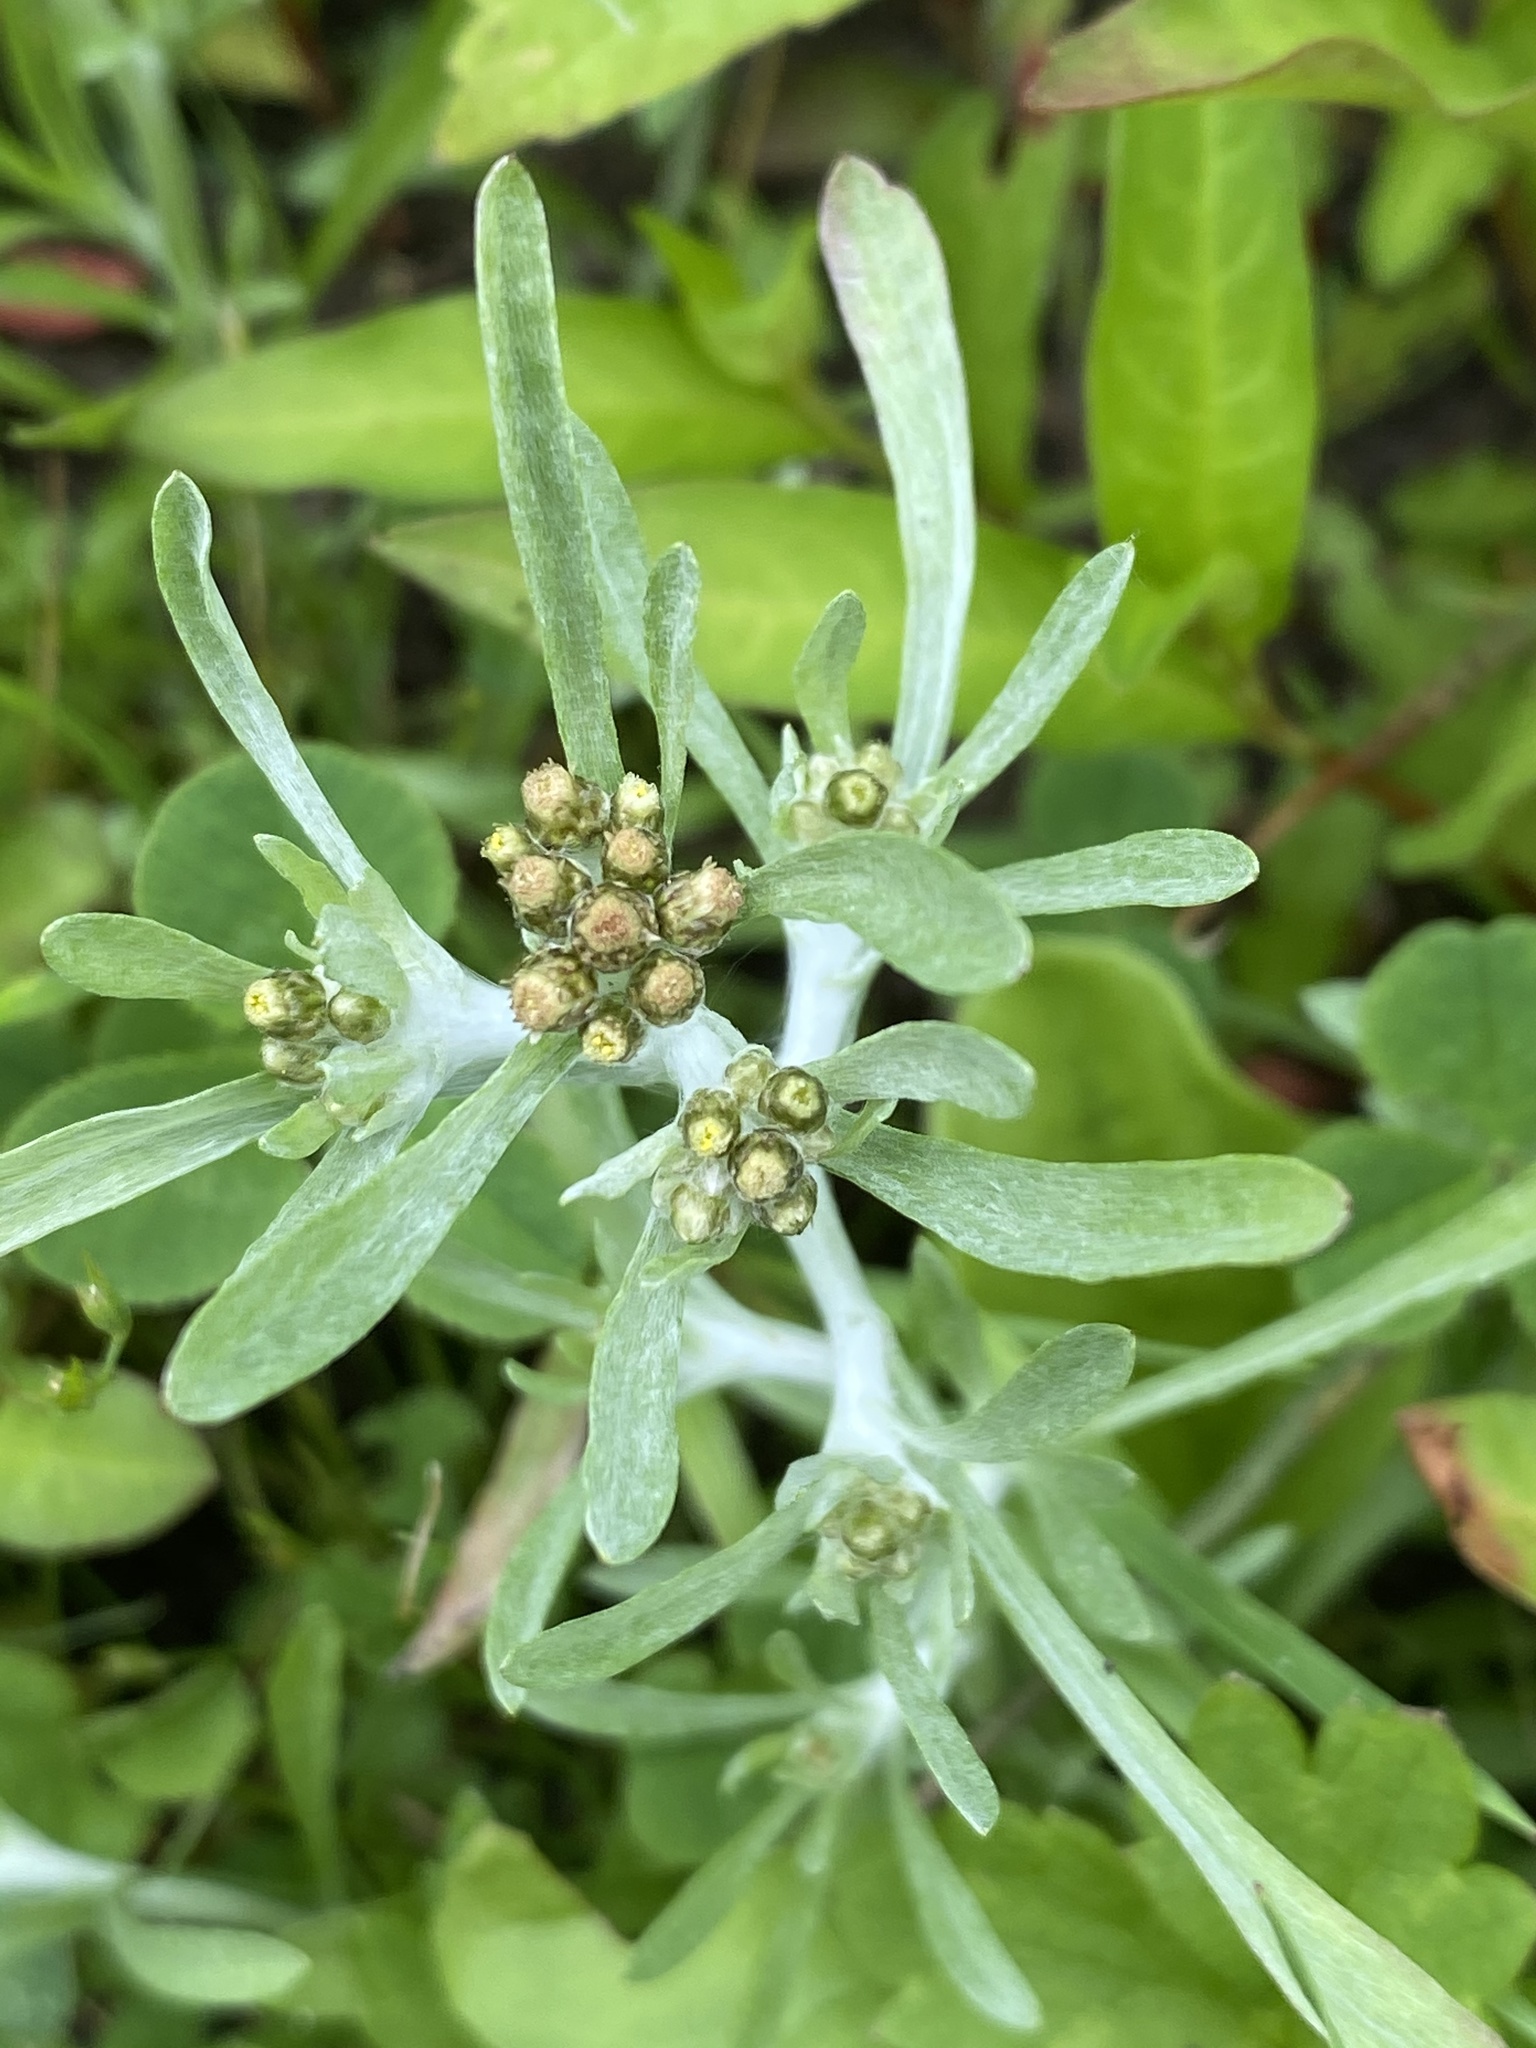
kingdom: Plantae
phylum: Tracheophyta
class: Magnoliopsida
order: Asterales
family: Asteraceae
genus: Gnaphalium
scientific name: Gnaphalium uliginosum
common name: Marsh cudweed
